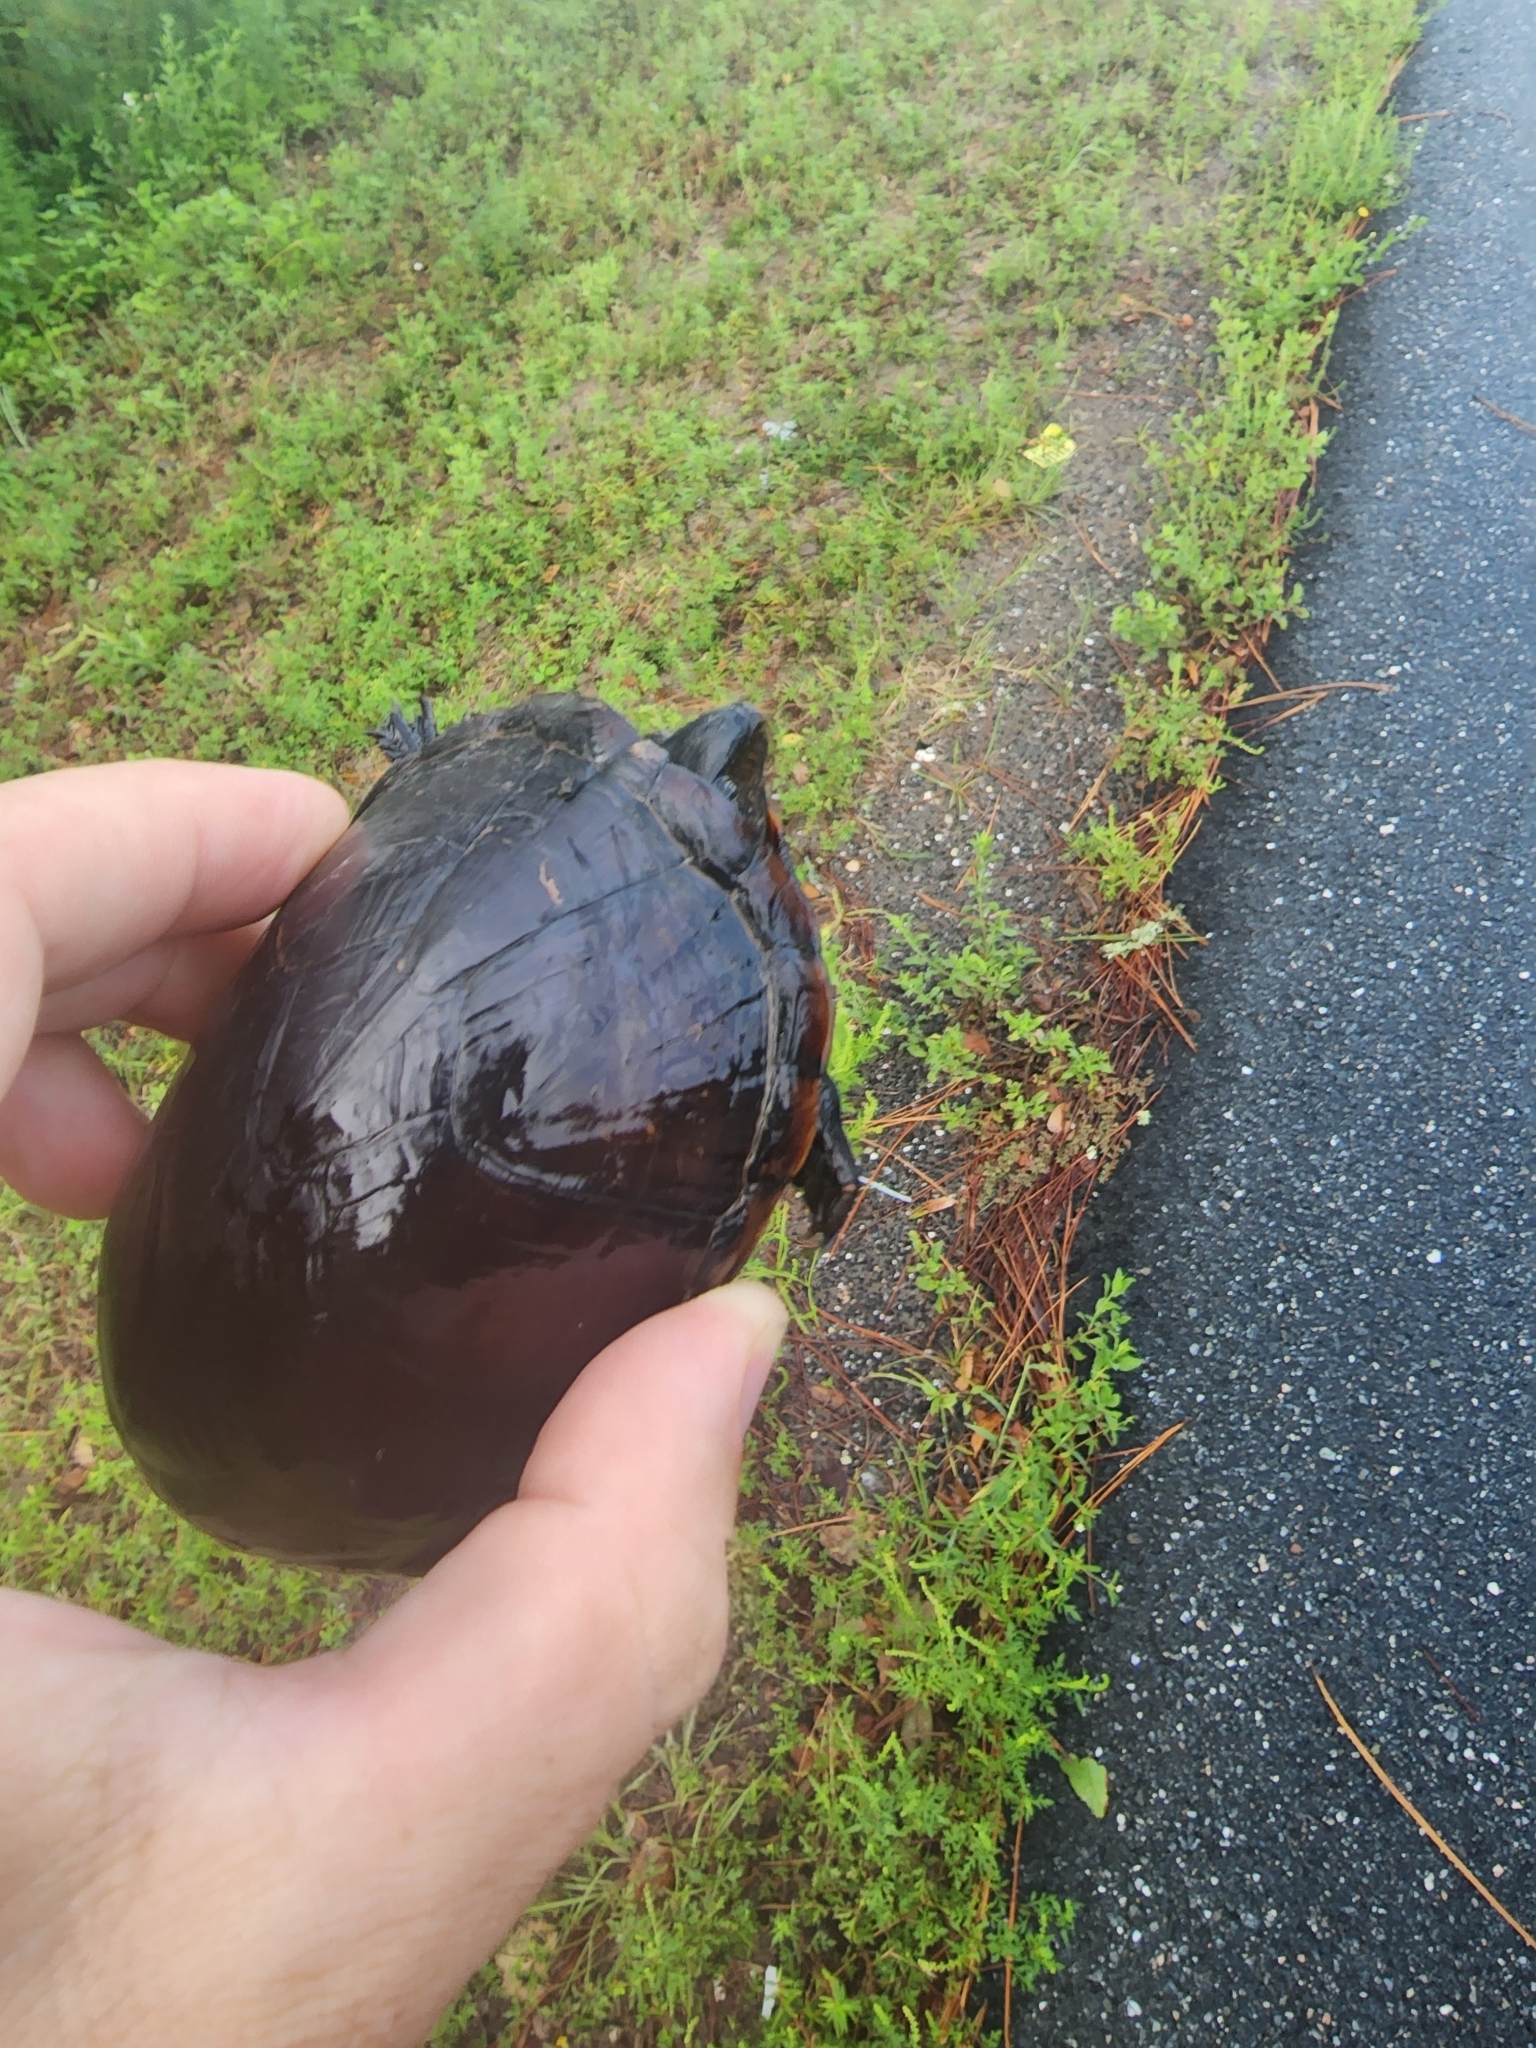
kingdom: Animalia
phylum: Chordata
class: Testudines
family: Kinosternidae
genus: Kinosternon
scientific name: Kinosternon subrubrum
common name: Eastern mud turtle
